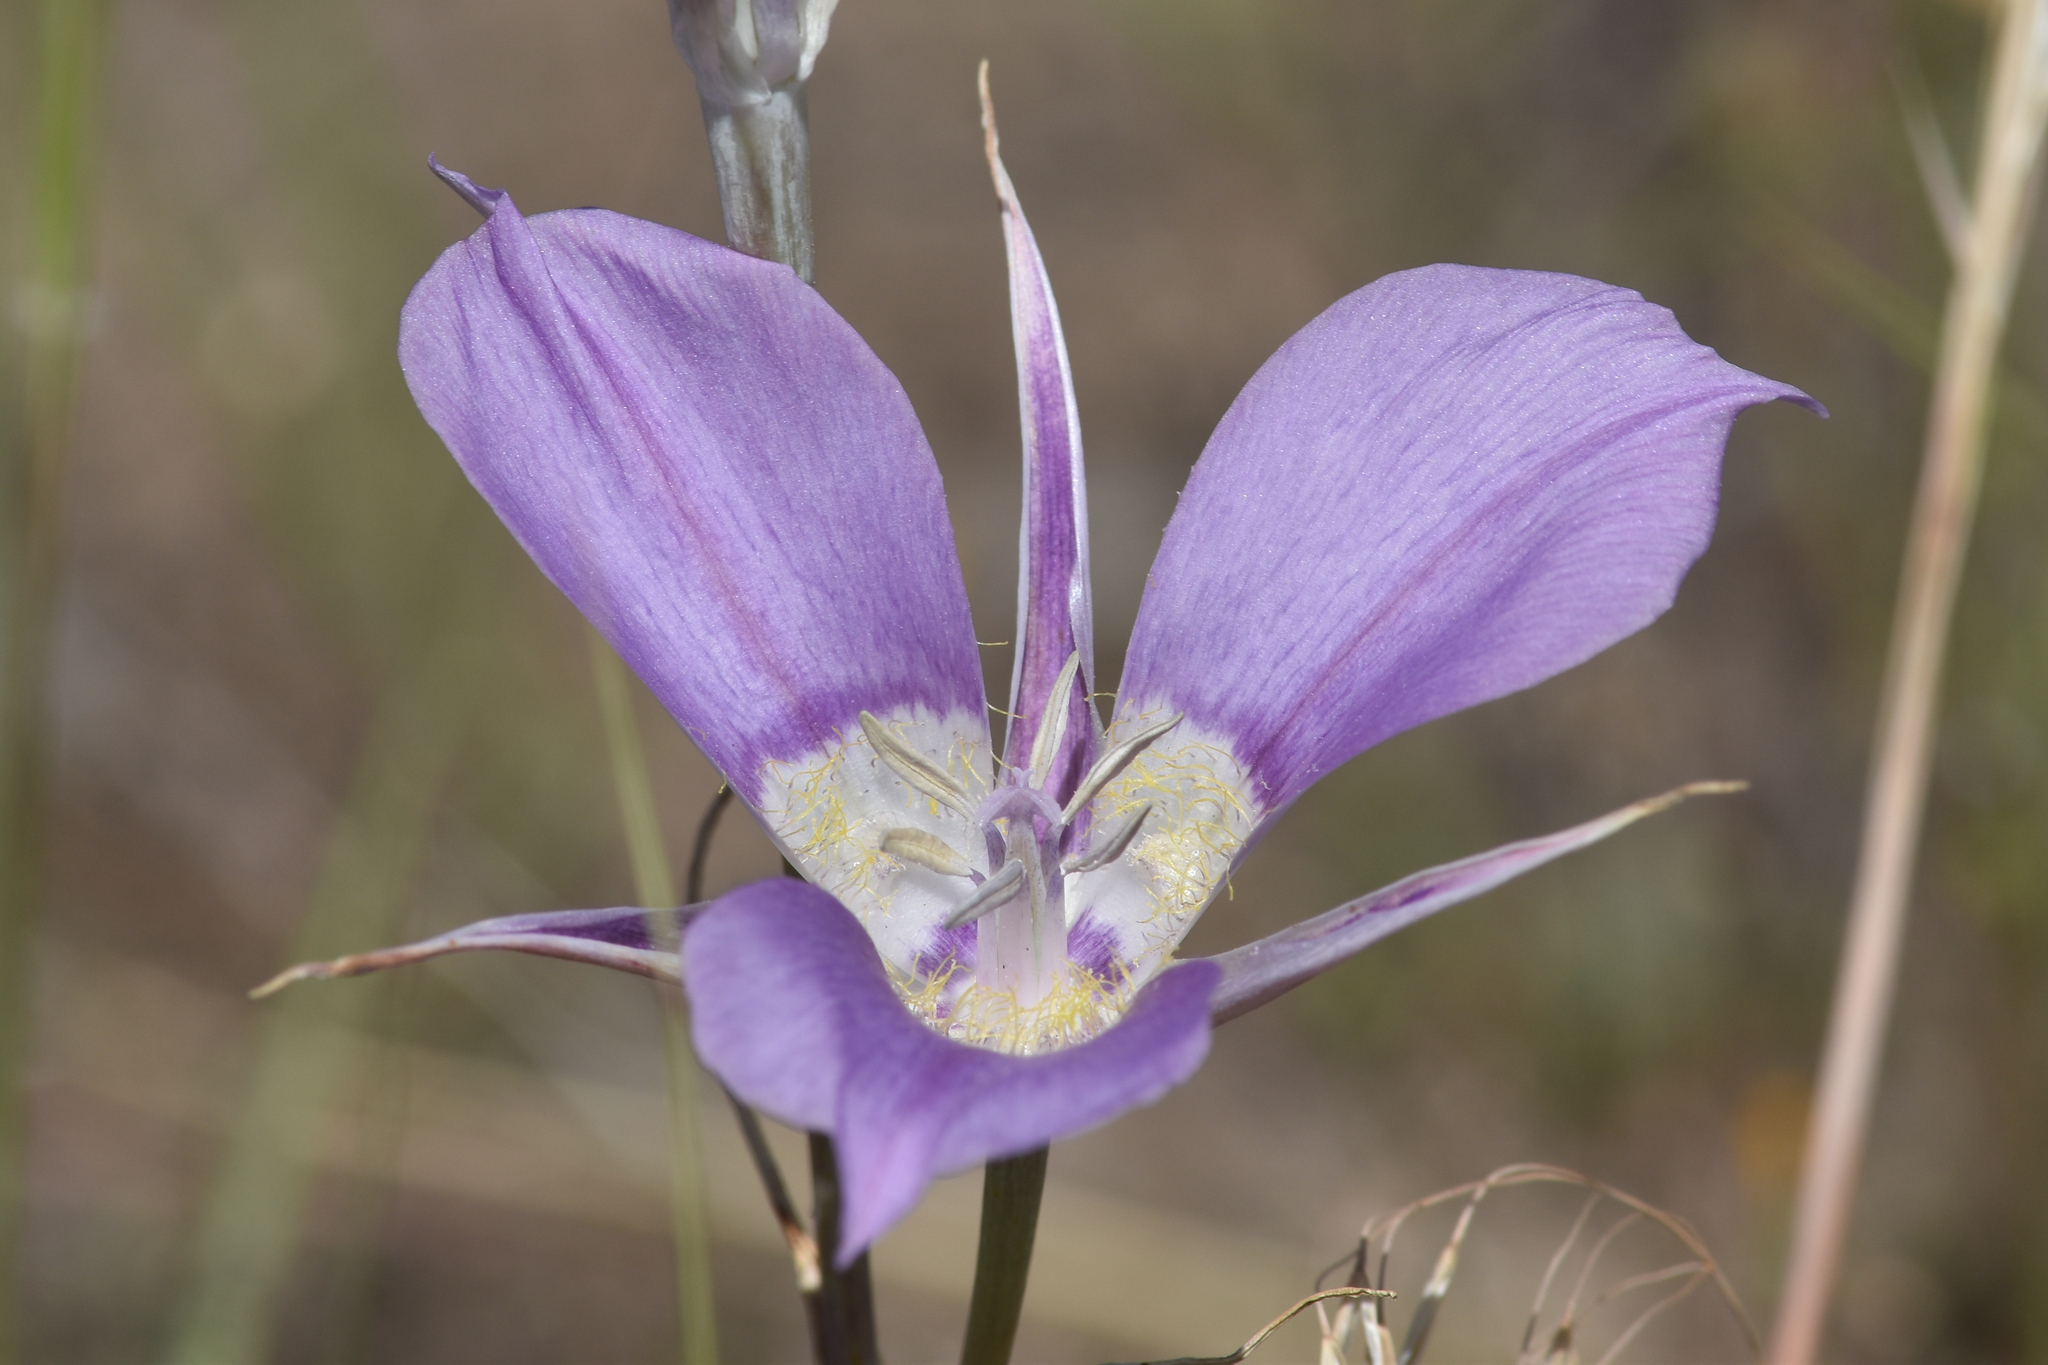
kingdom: Plantae
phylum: Tracheophyta
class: Liliopsida
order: Liliales
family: Liliaceae
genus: Calochortus
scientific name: Calochortus macrocarpus
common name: Green-band mariposa lily
